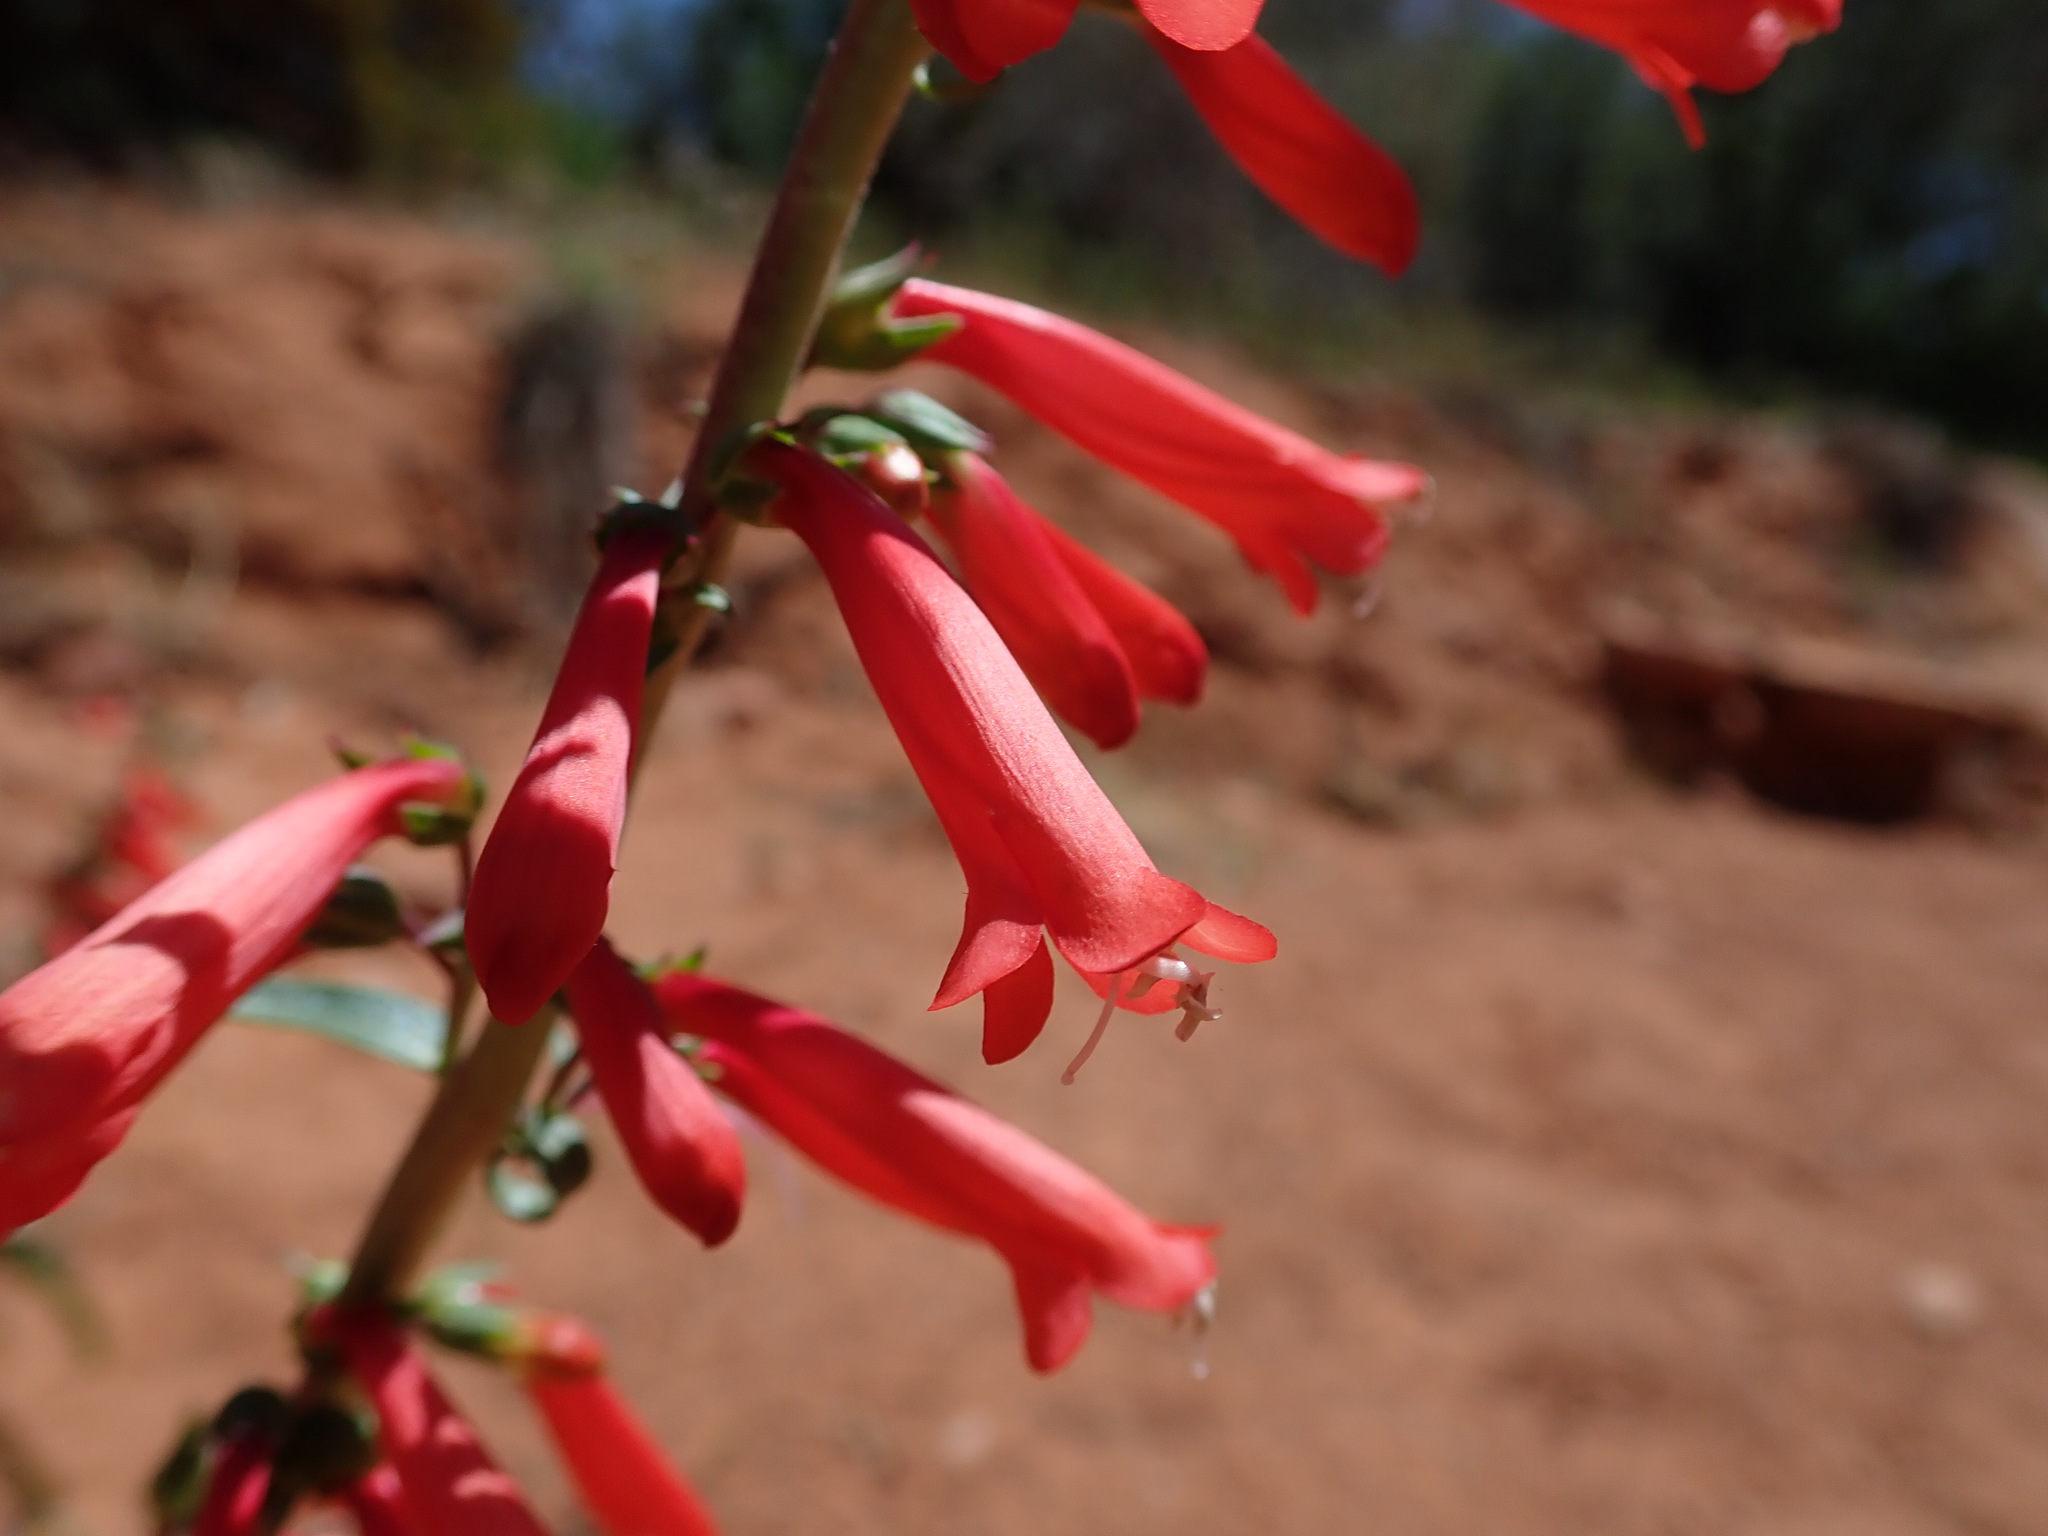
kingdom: Plantae
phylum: Tracheophyta
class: Magnoliopsida
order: Lamiales
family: Plantaginaceae
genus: Penstemon
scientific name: Penstemon eatonii
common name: Eaton's penstemon
